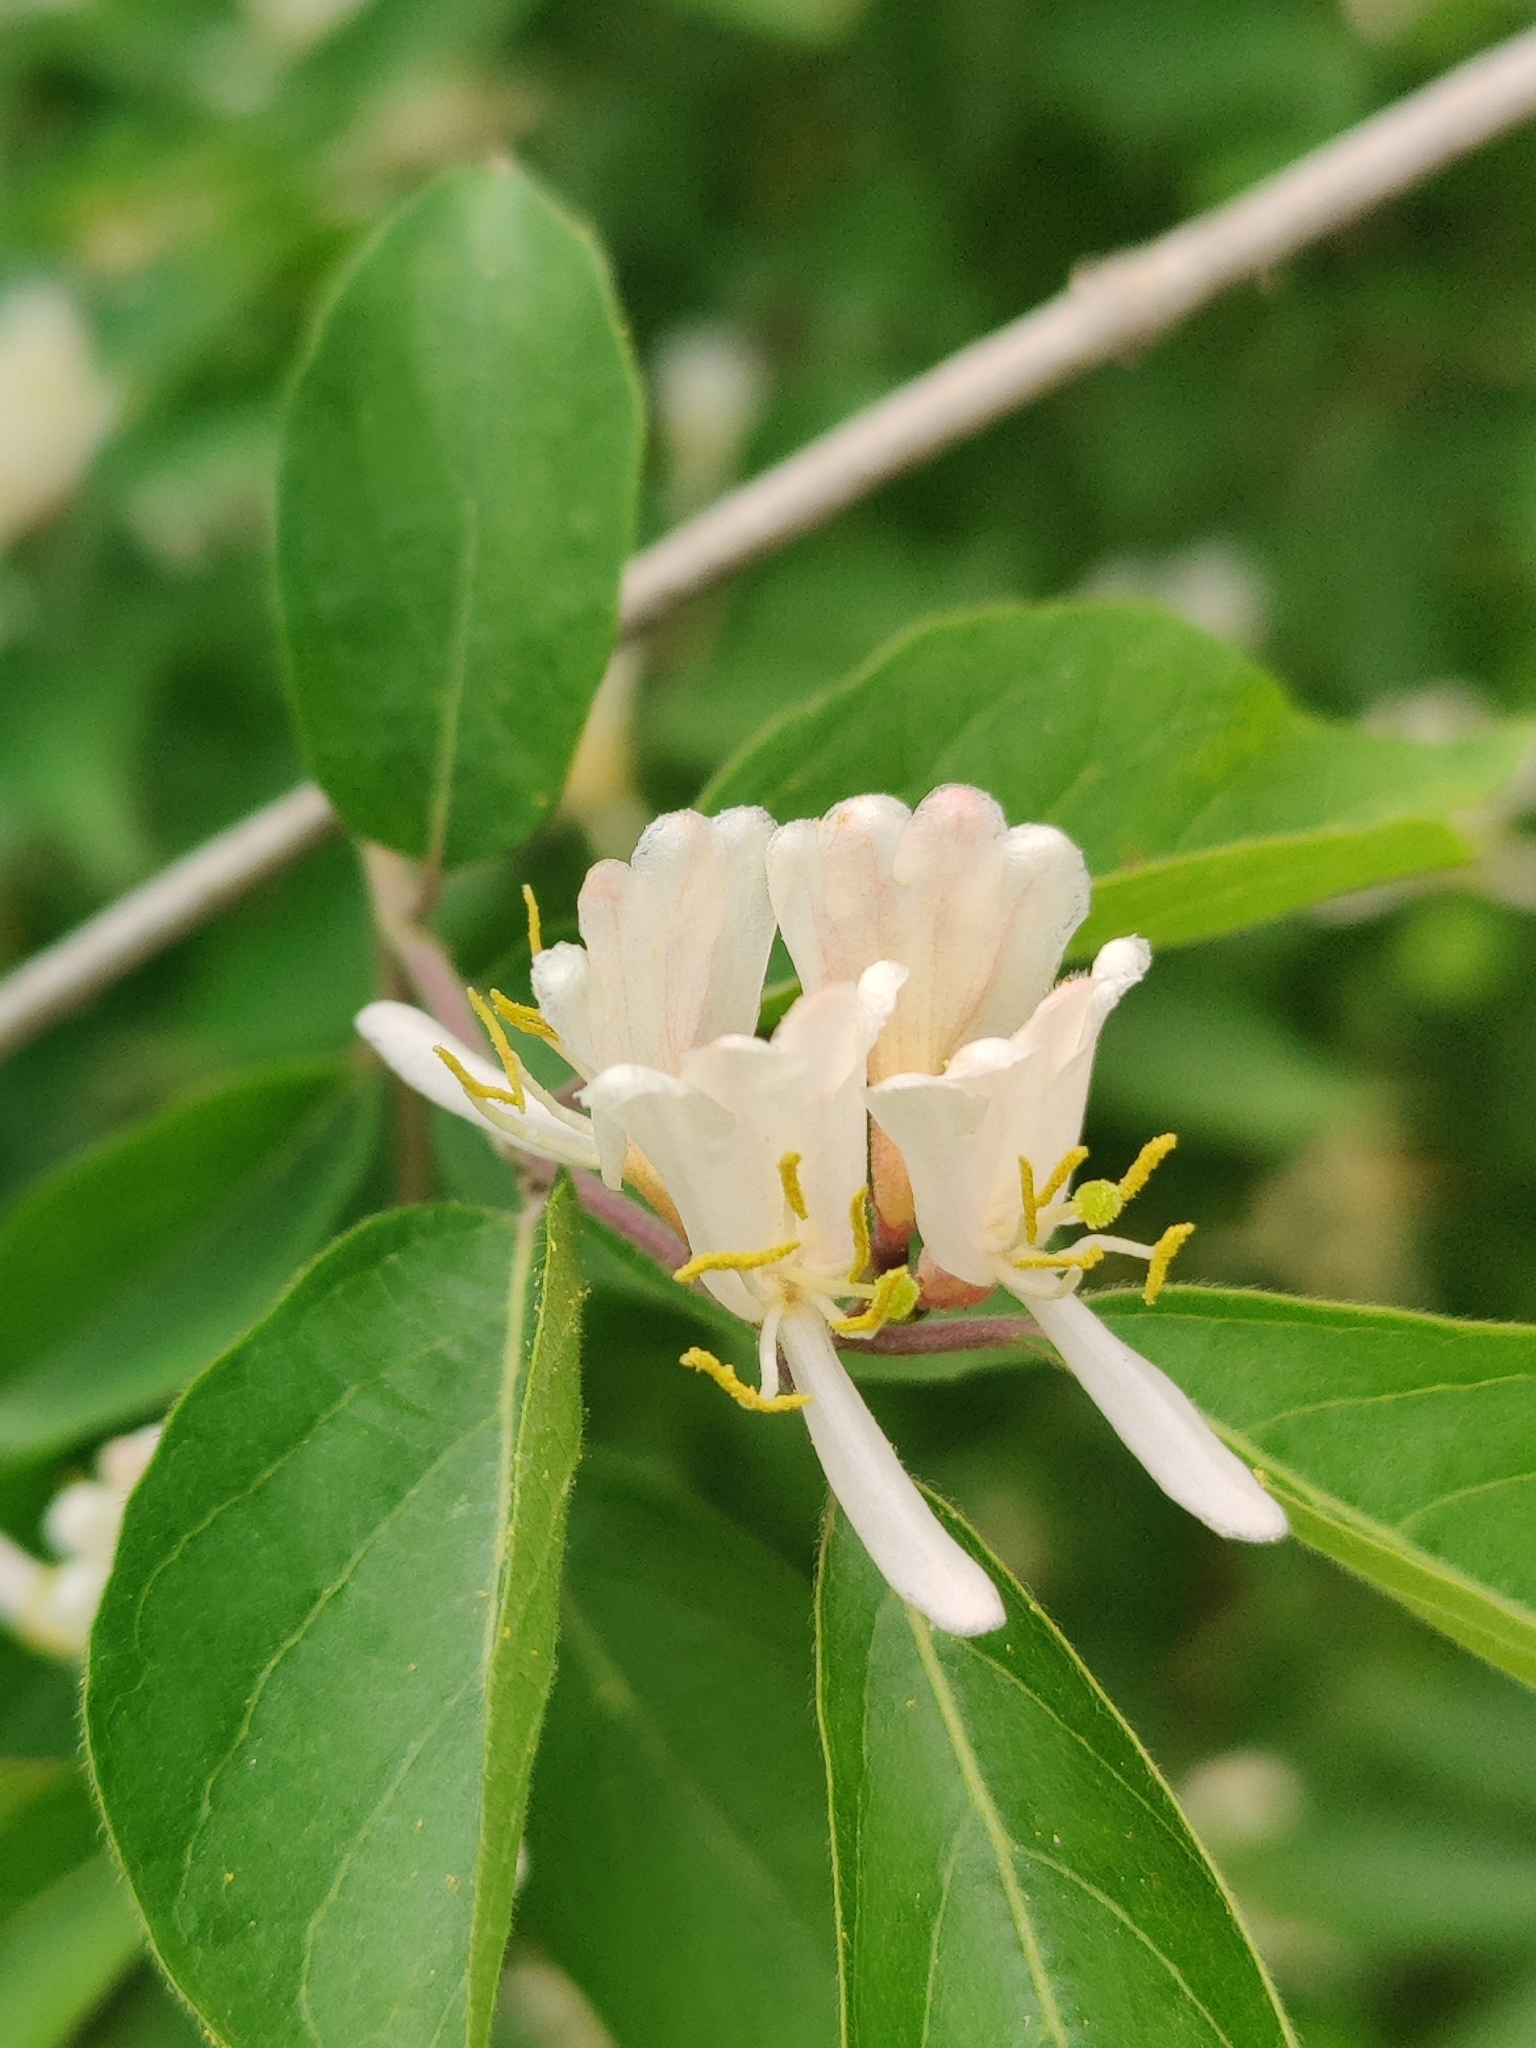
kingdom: Plantae
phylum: Tracheophyta
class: Magnoliopsida
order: Dipsacales
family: Caprifoliaceae
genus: Lonicera
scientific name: Lonicera maackii
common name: Amur honeysuckle
